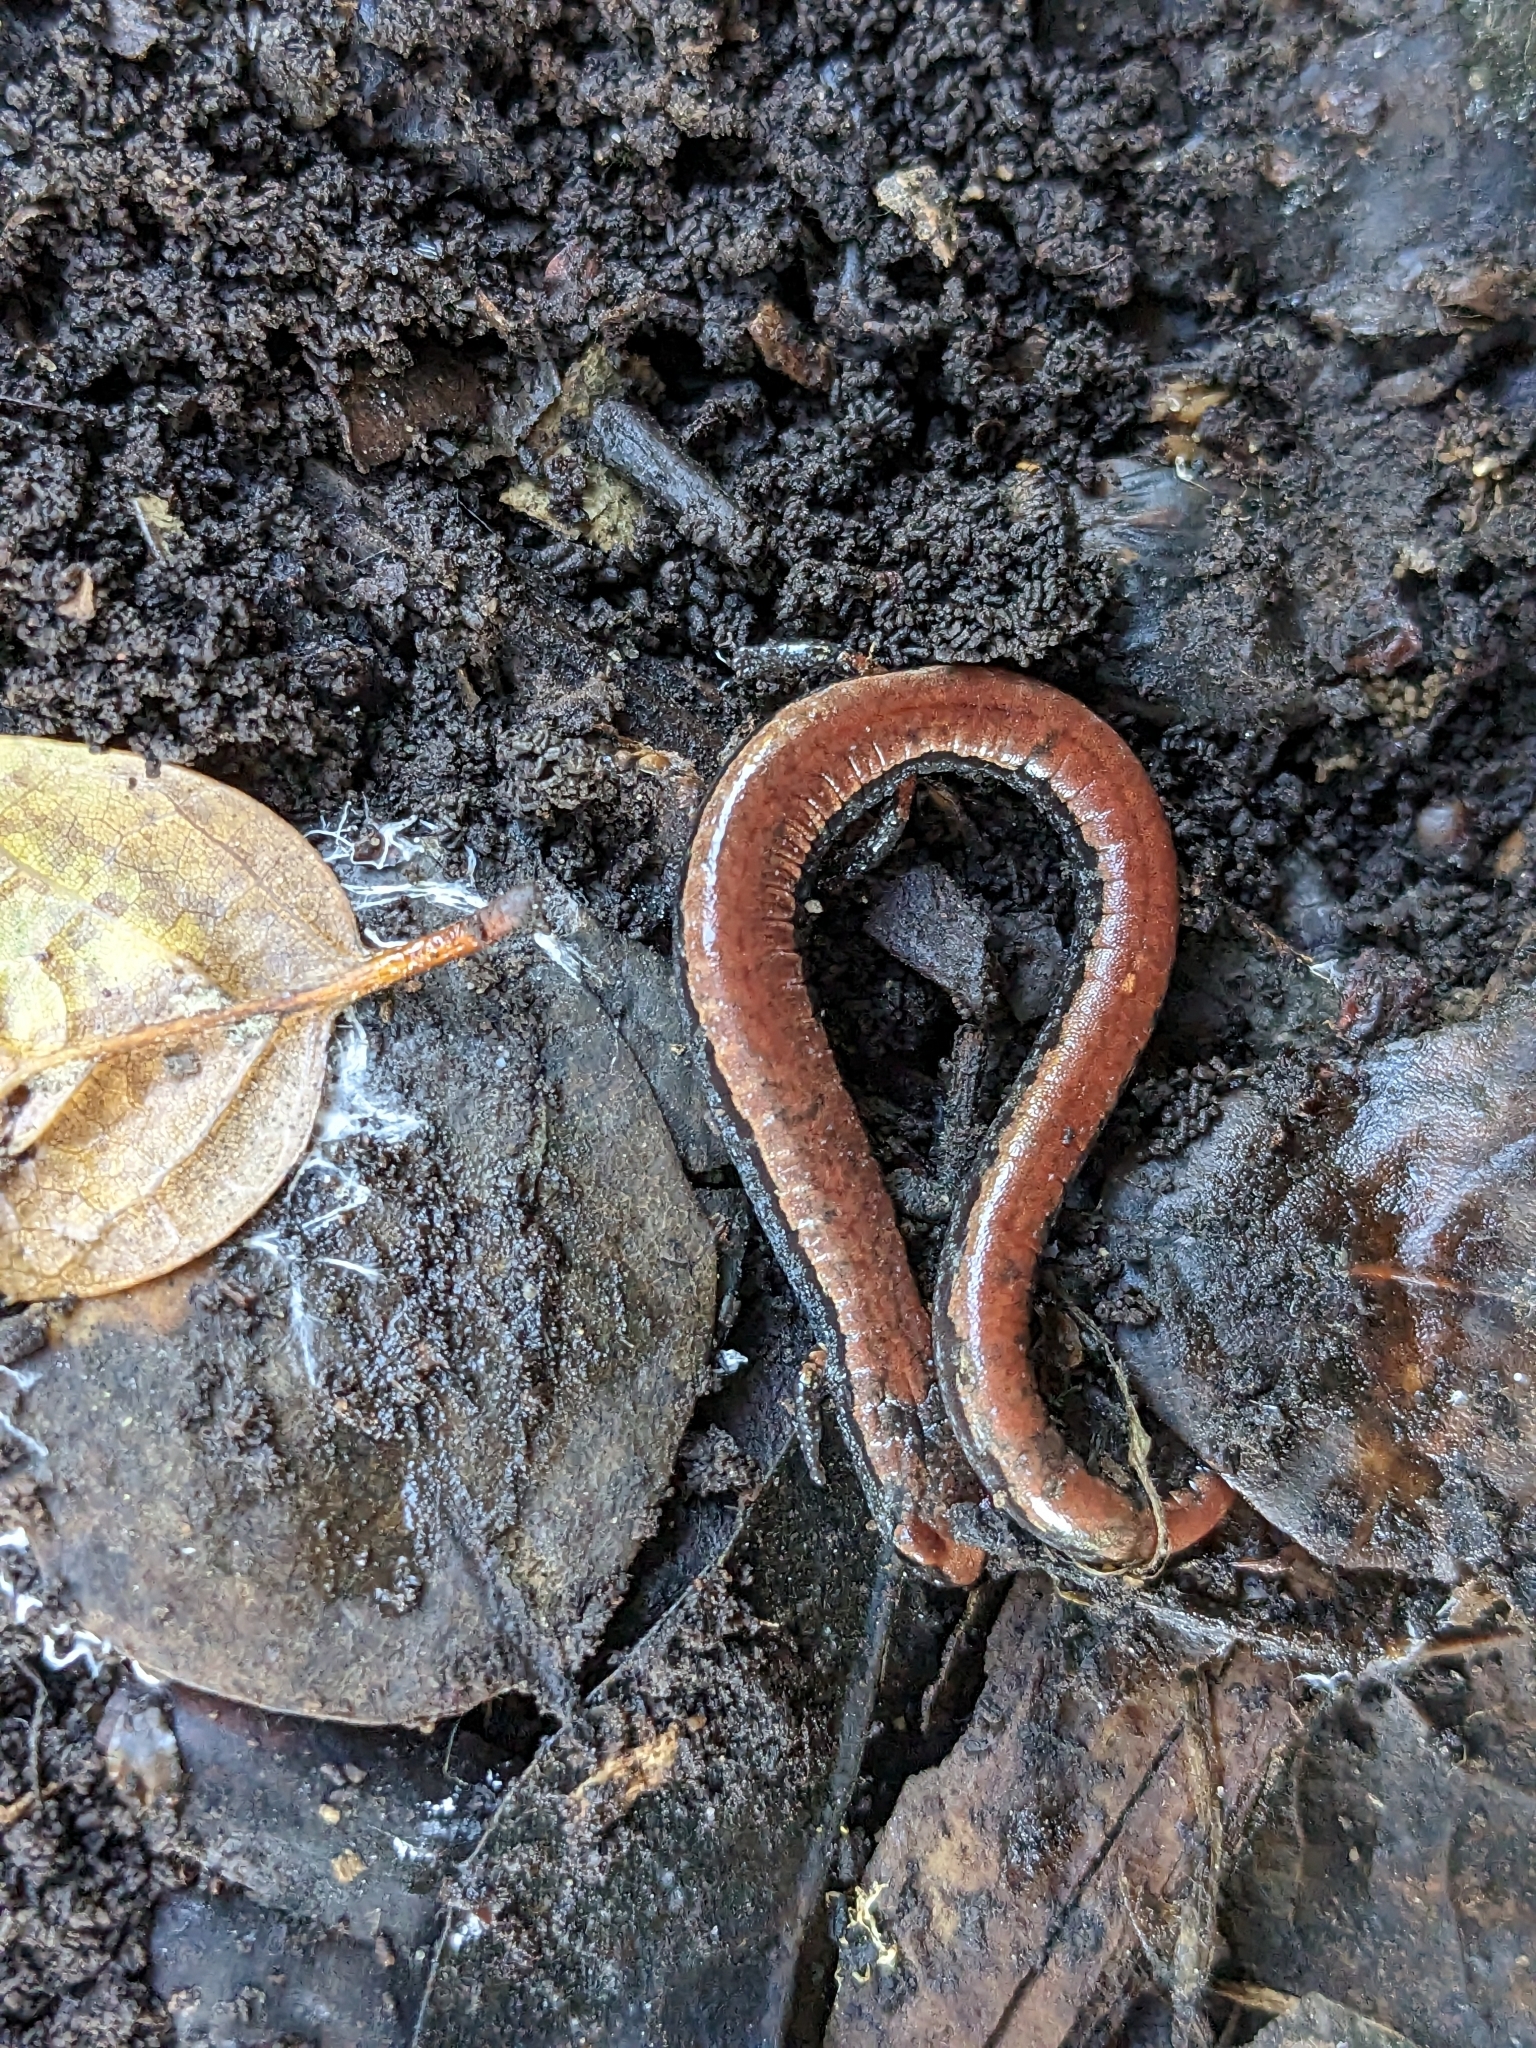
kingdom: Animalia
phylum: Chordata
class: Amphibia
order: Caudata
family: Plethodontidae
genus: Batrachoseps
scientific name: Batrachoseps attenuatus
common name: California slender salamander
